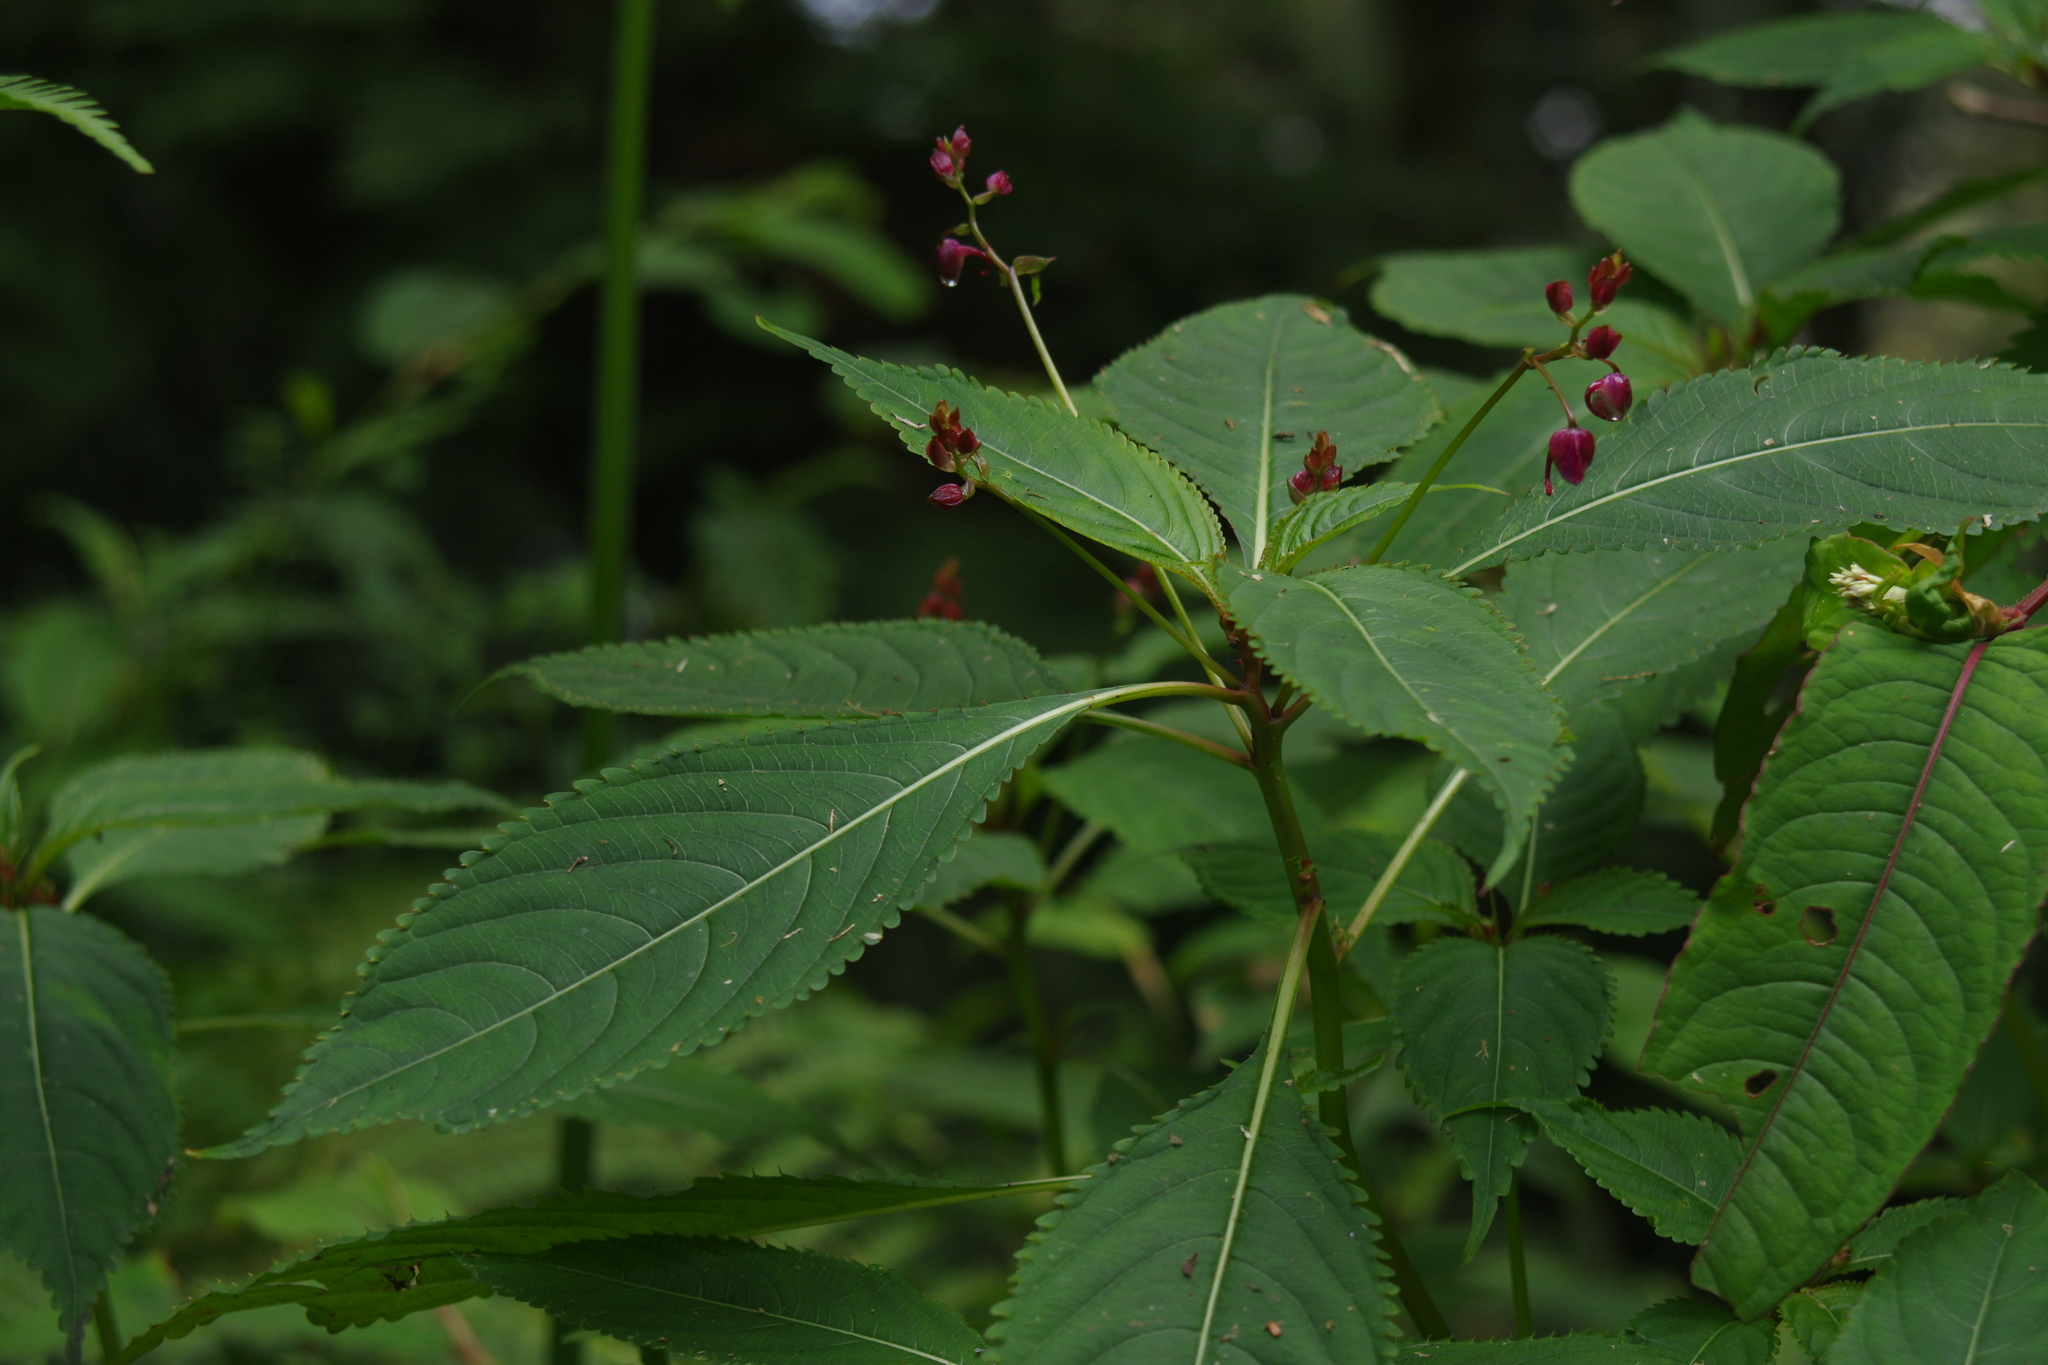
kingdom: Plantae
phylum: Tracheophyta
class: Magnoliopsida
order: Ericales
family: Balsaminaceae
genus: Impatiens
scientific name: Impatiens devolii
